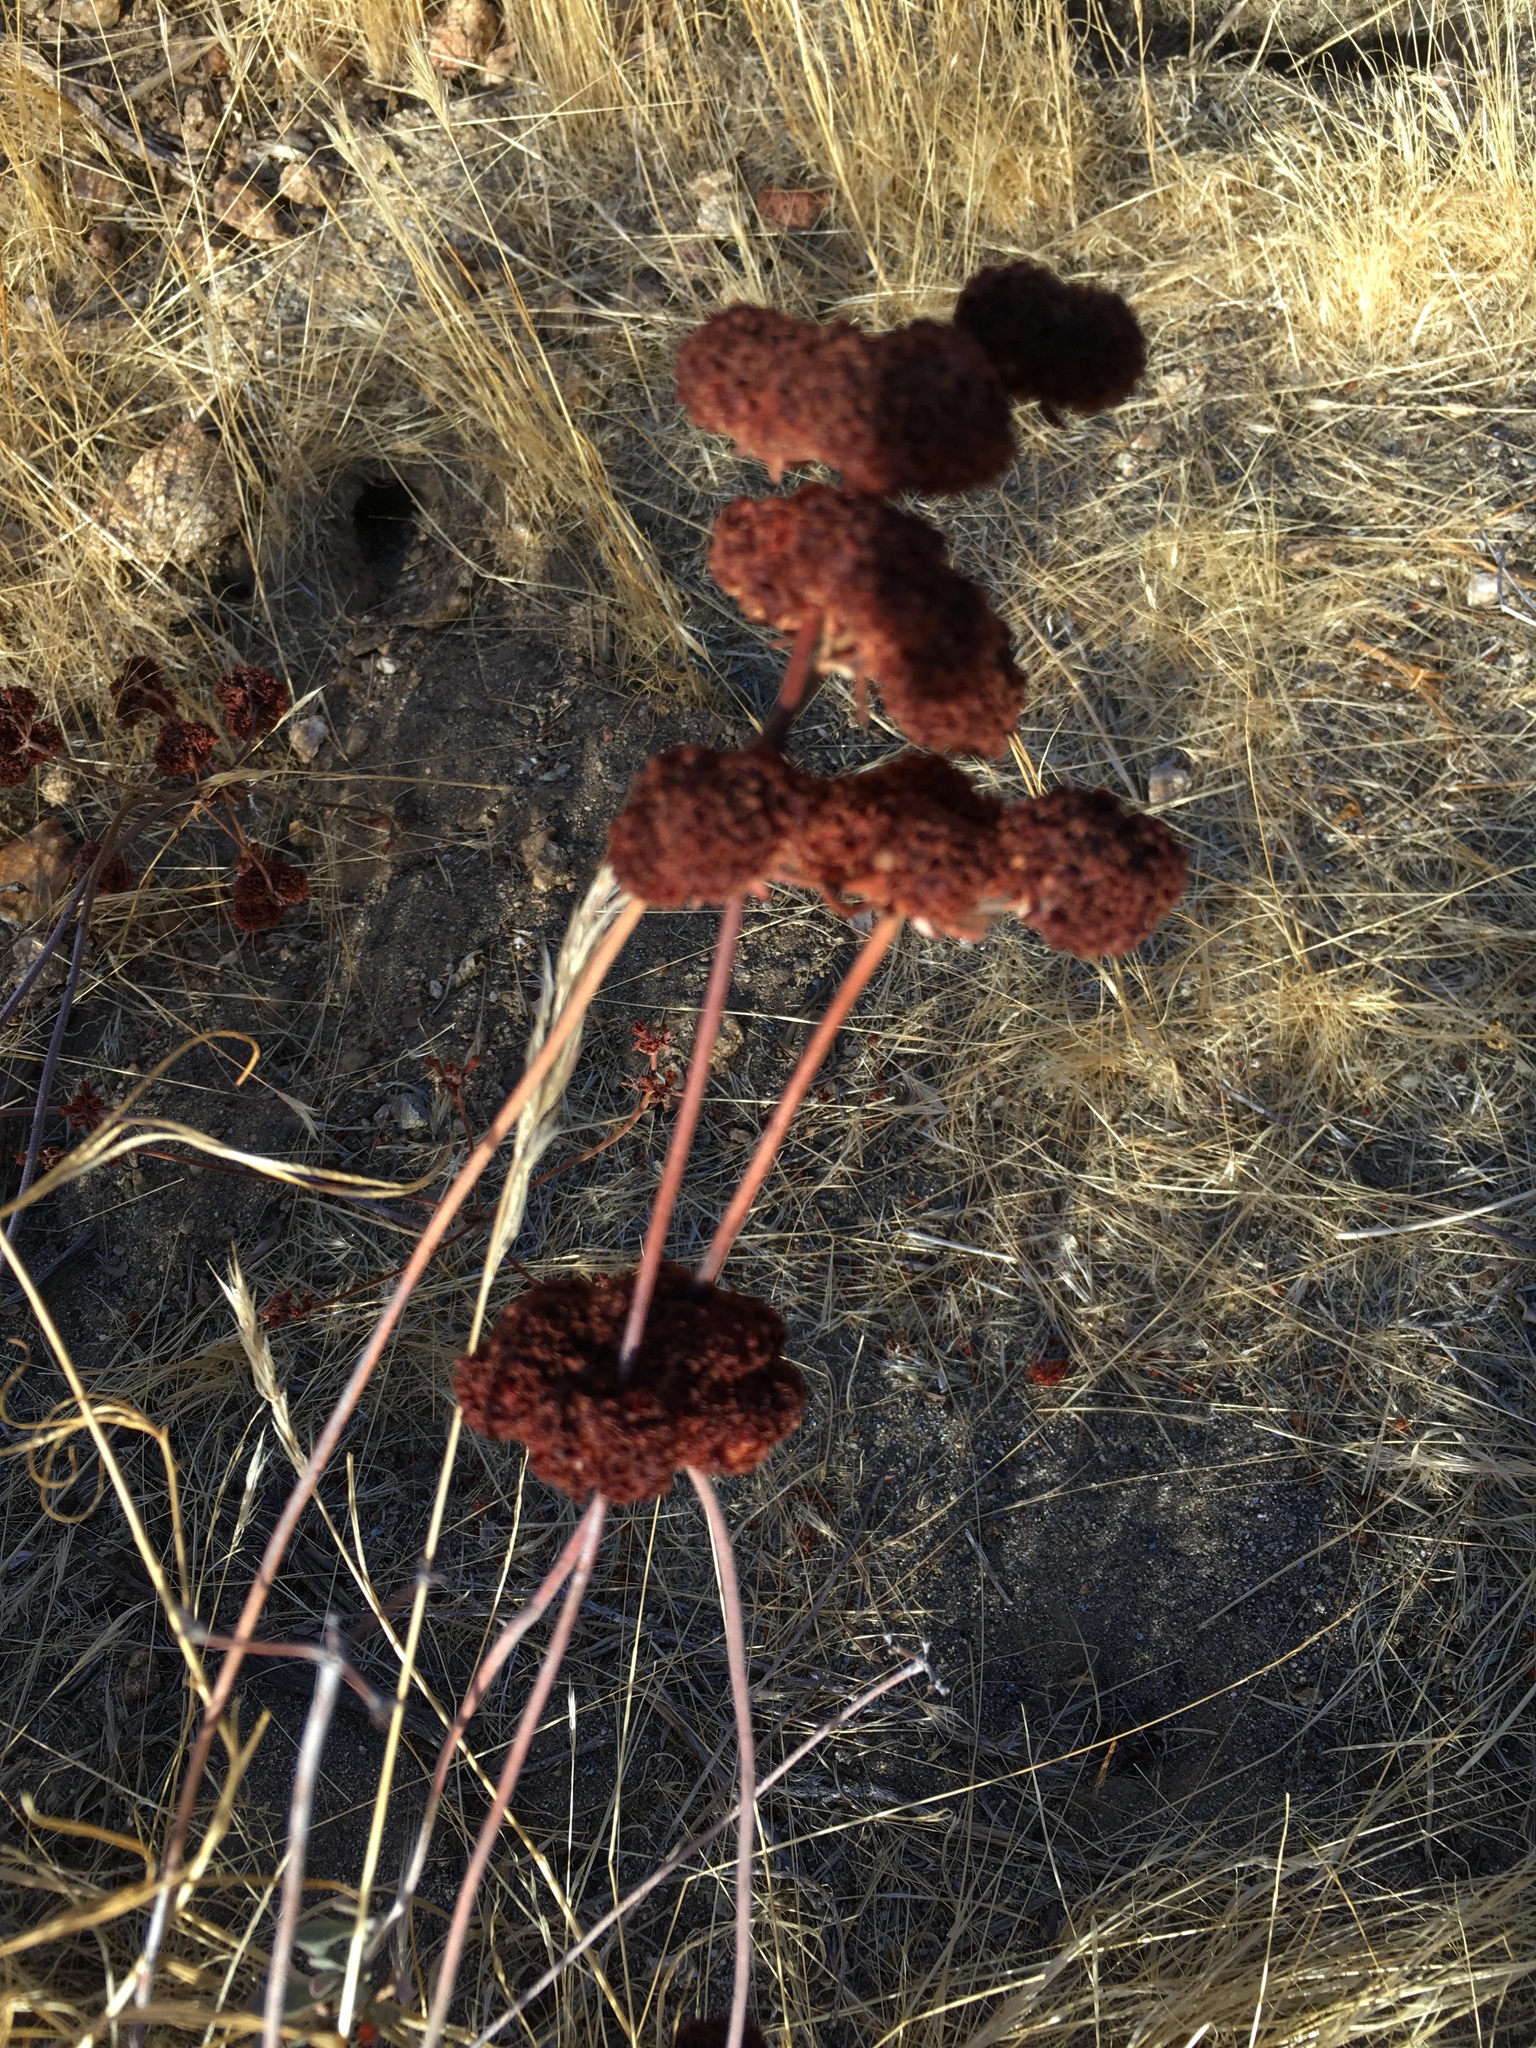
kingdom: Plantae
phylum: Tracheophyta
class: Magnoliopsida
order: Caryophyllales
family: Polygonaceae
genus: Eriogonum
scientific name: Eriogonum fasciculatum
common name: California wild buckwheat
